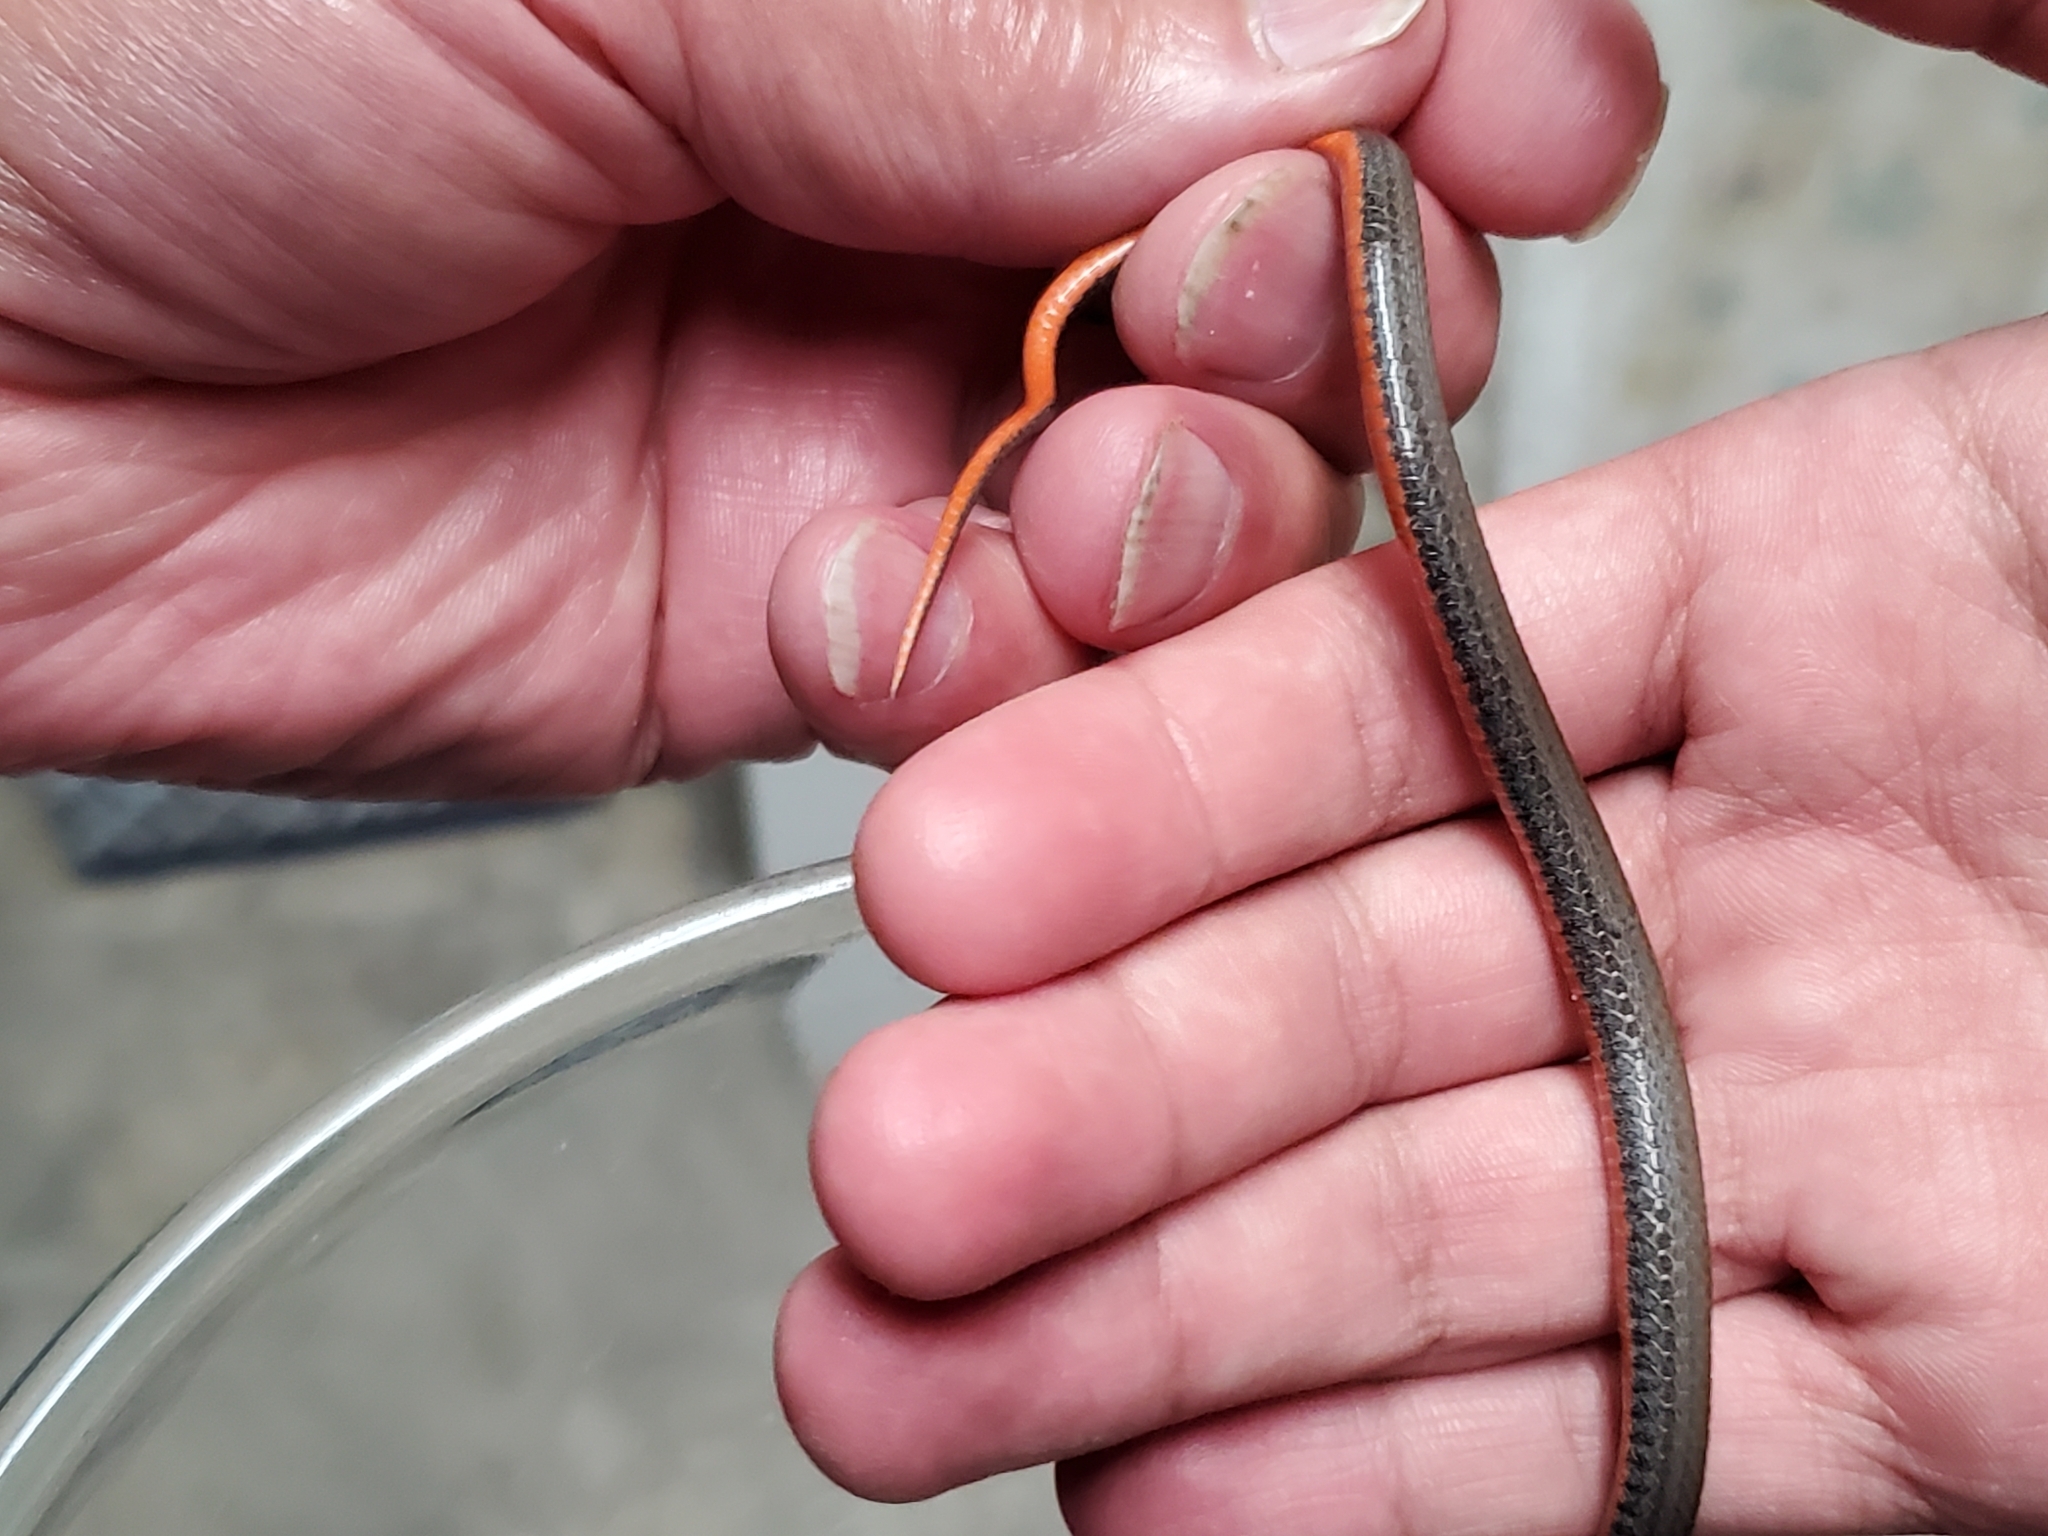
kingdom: Animalia
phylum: Chordata
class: Squamata
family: Colubridae
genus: Storeria
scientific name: Storeria occipitomaculata
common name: Redbelly snake
